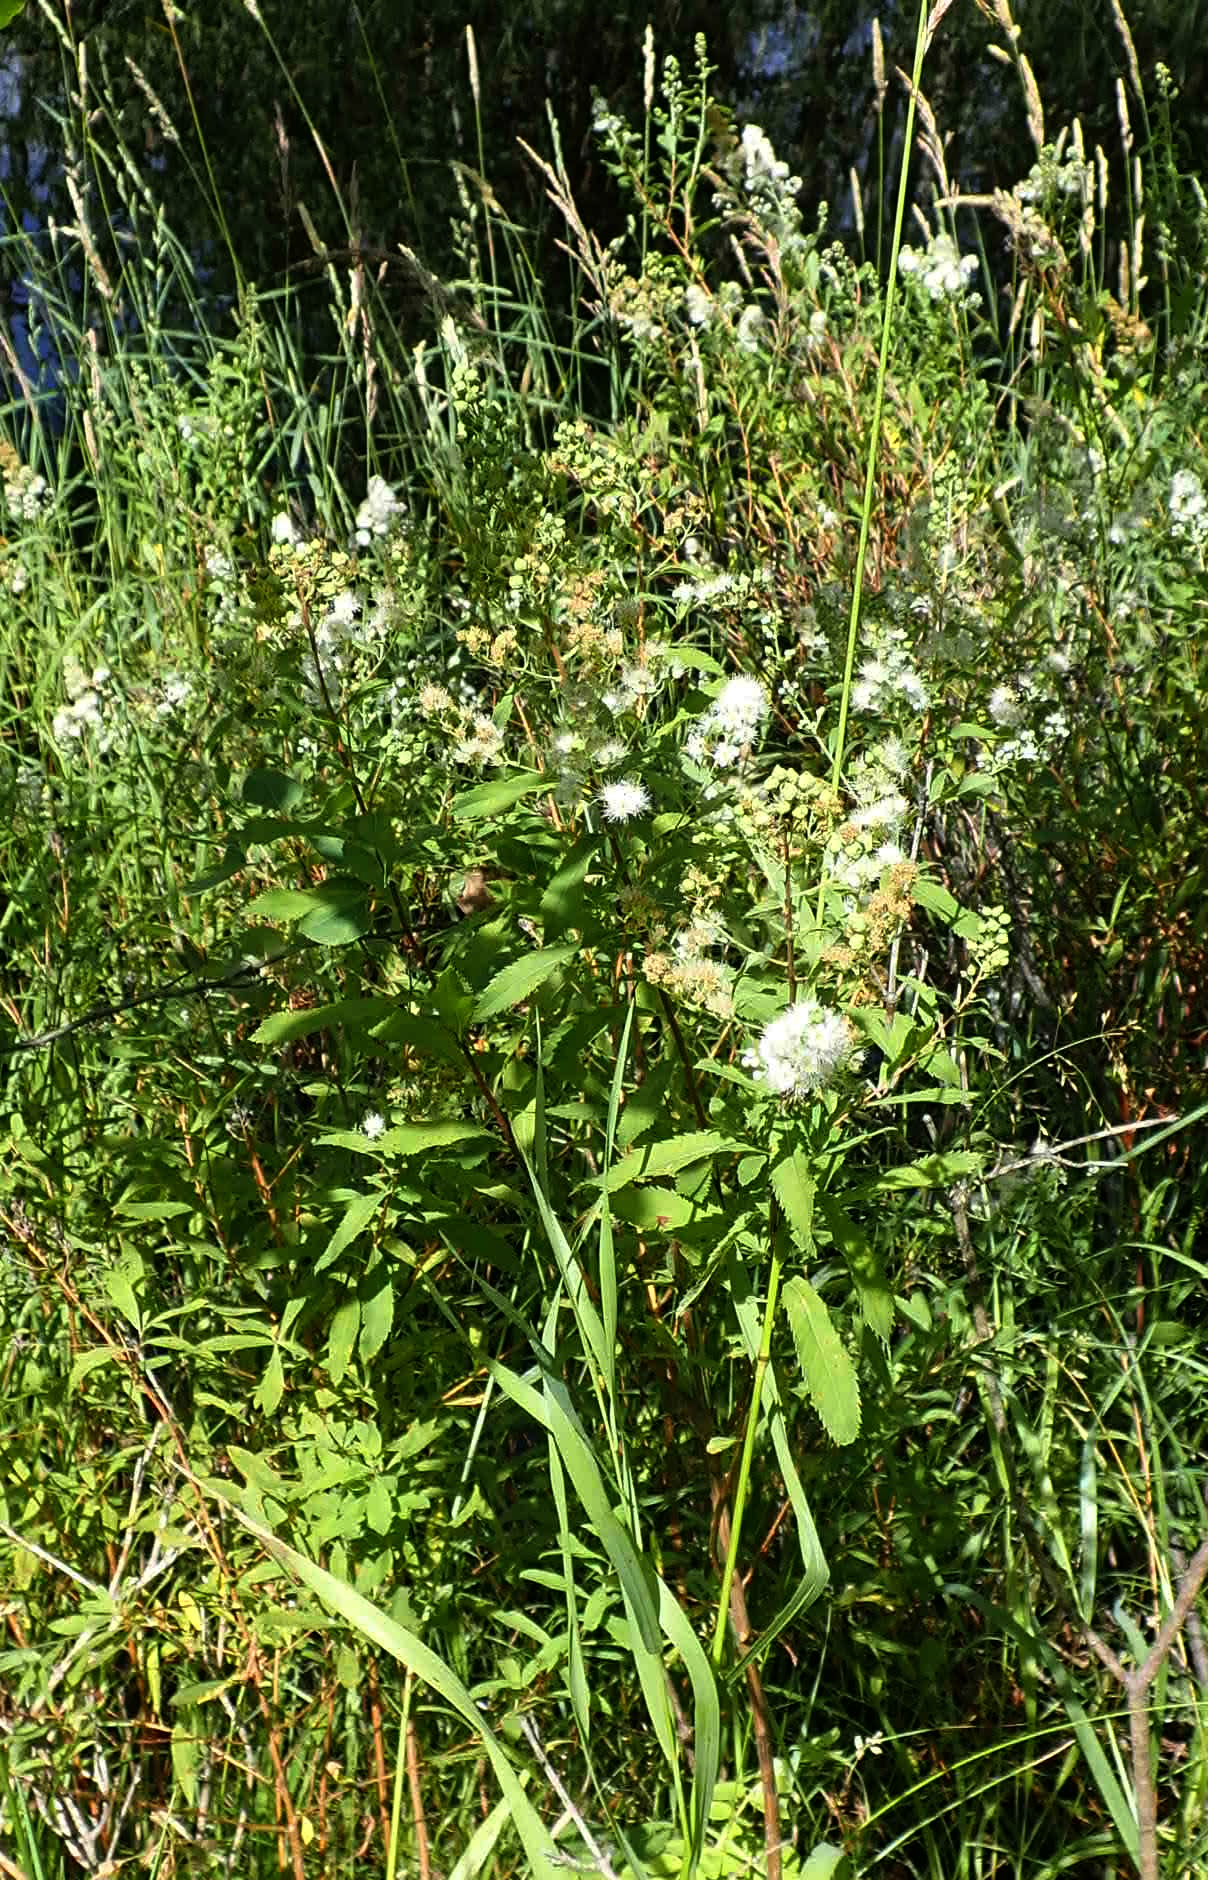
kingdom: Plantae
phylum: Tracheophyta
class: Magnoliopsida
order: Rosales
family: Rosaceae
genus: Spiraea
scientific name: Spiraea alba
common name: Pale bridewort
